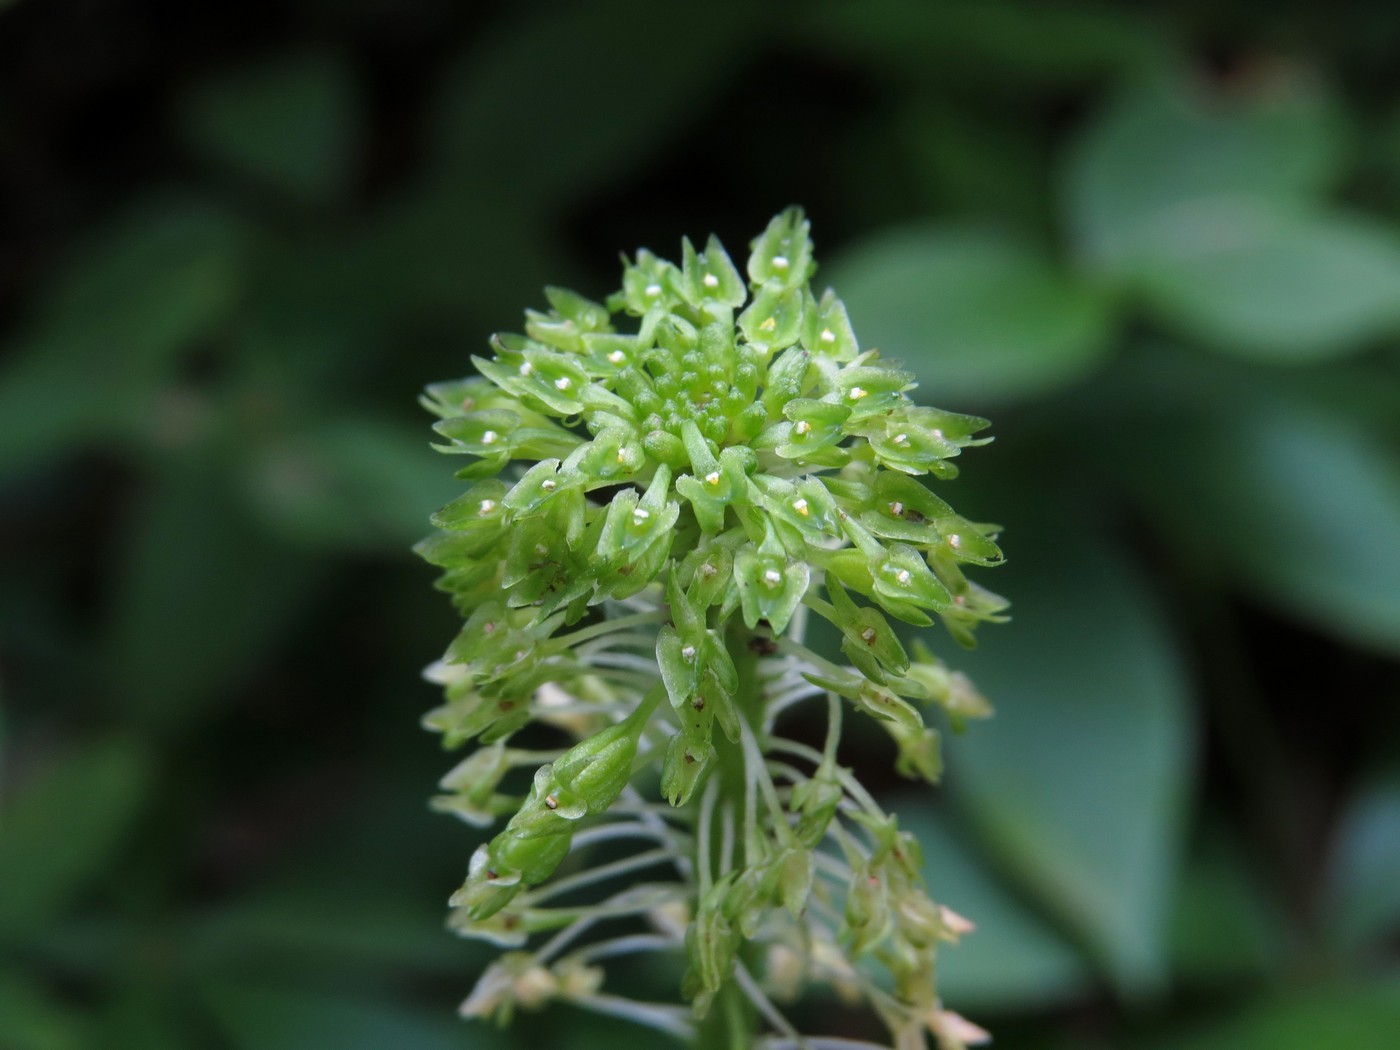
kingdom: Plantae
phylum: Tracheophyta
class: Liliopsida
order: Asparagales
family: Orchidaceae
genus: Malaxis
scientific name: Malaxis unifolia
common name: Green adder's-mouth
